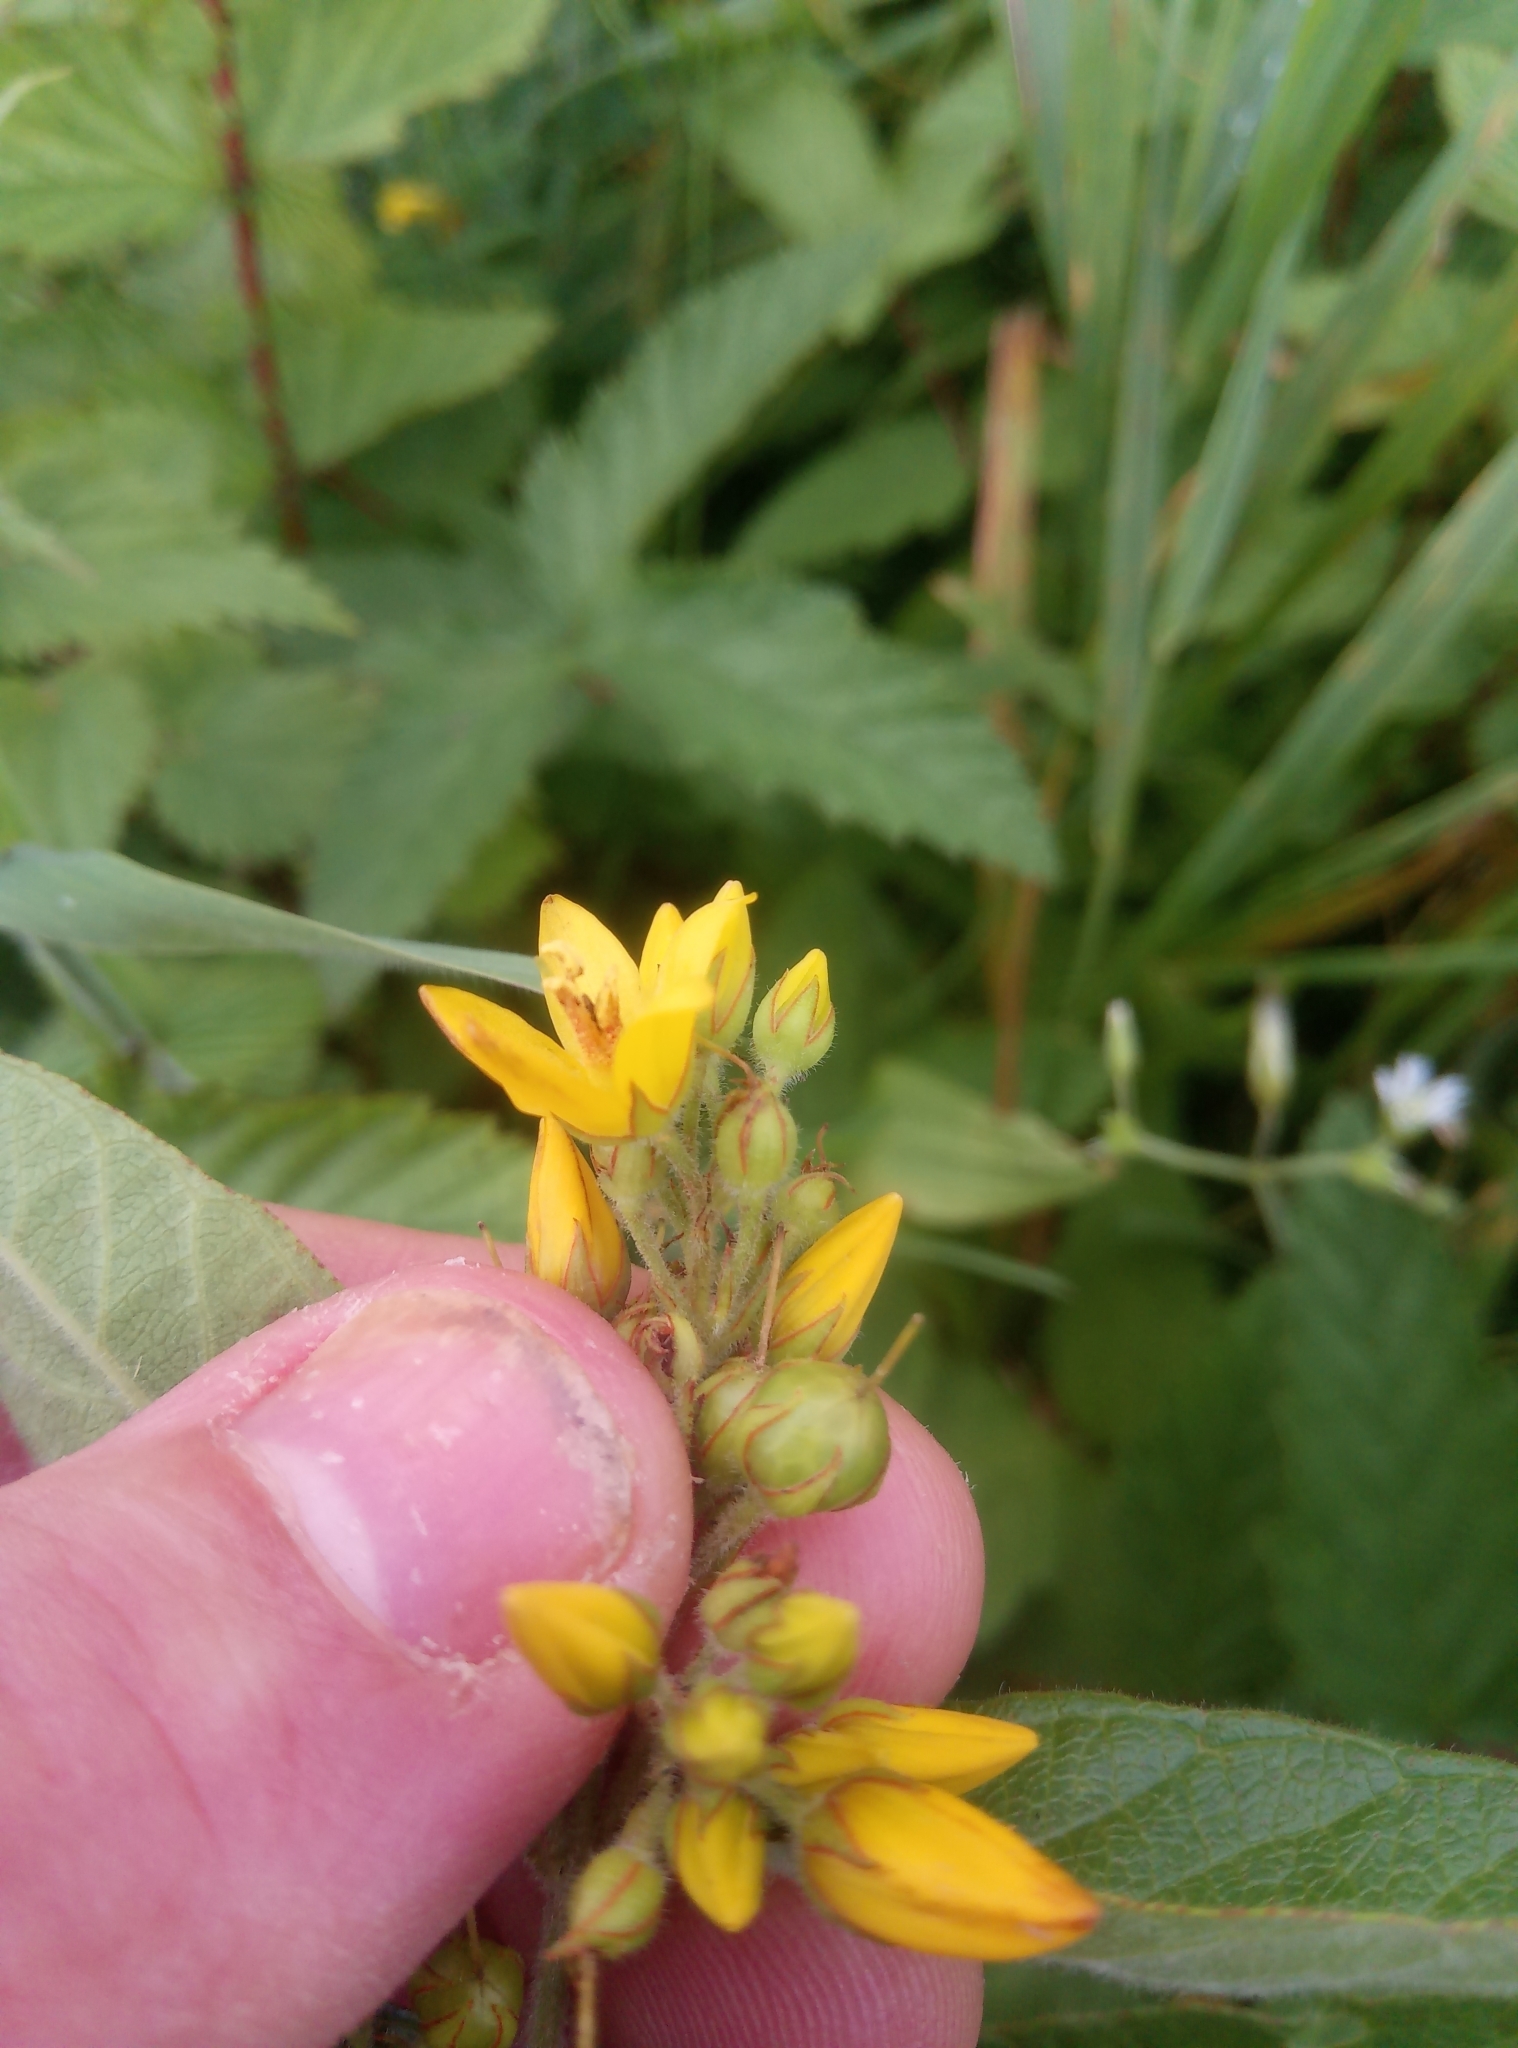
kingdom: Plantae
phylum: Tracheophyta
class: Magnoliopsida
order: Ericales
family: Primulaceae
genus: Lysimachia
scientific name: Lysimachia vulgaris
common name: Yellow loosestrife
